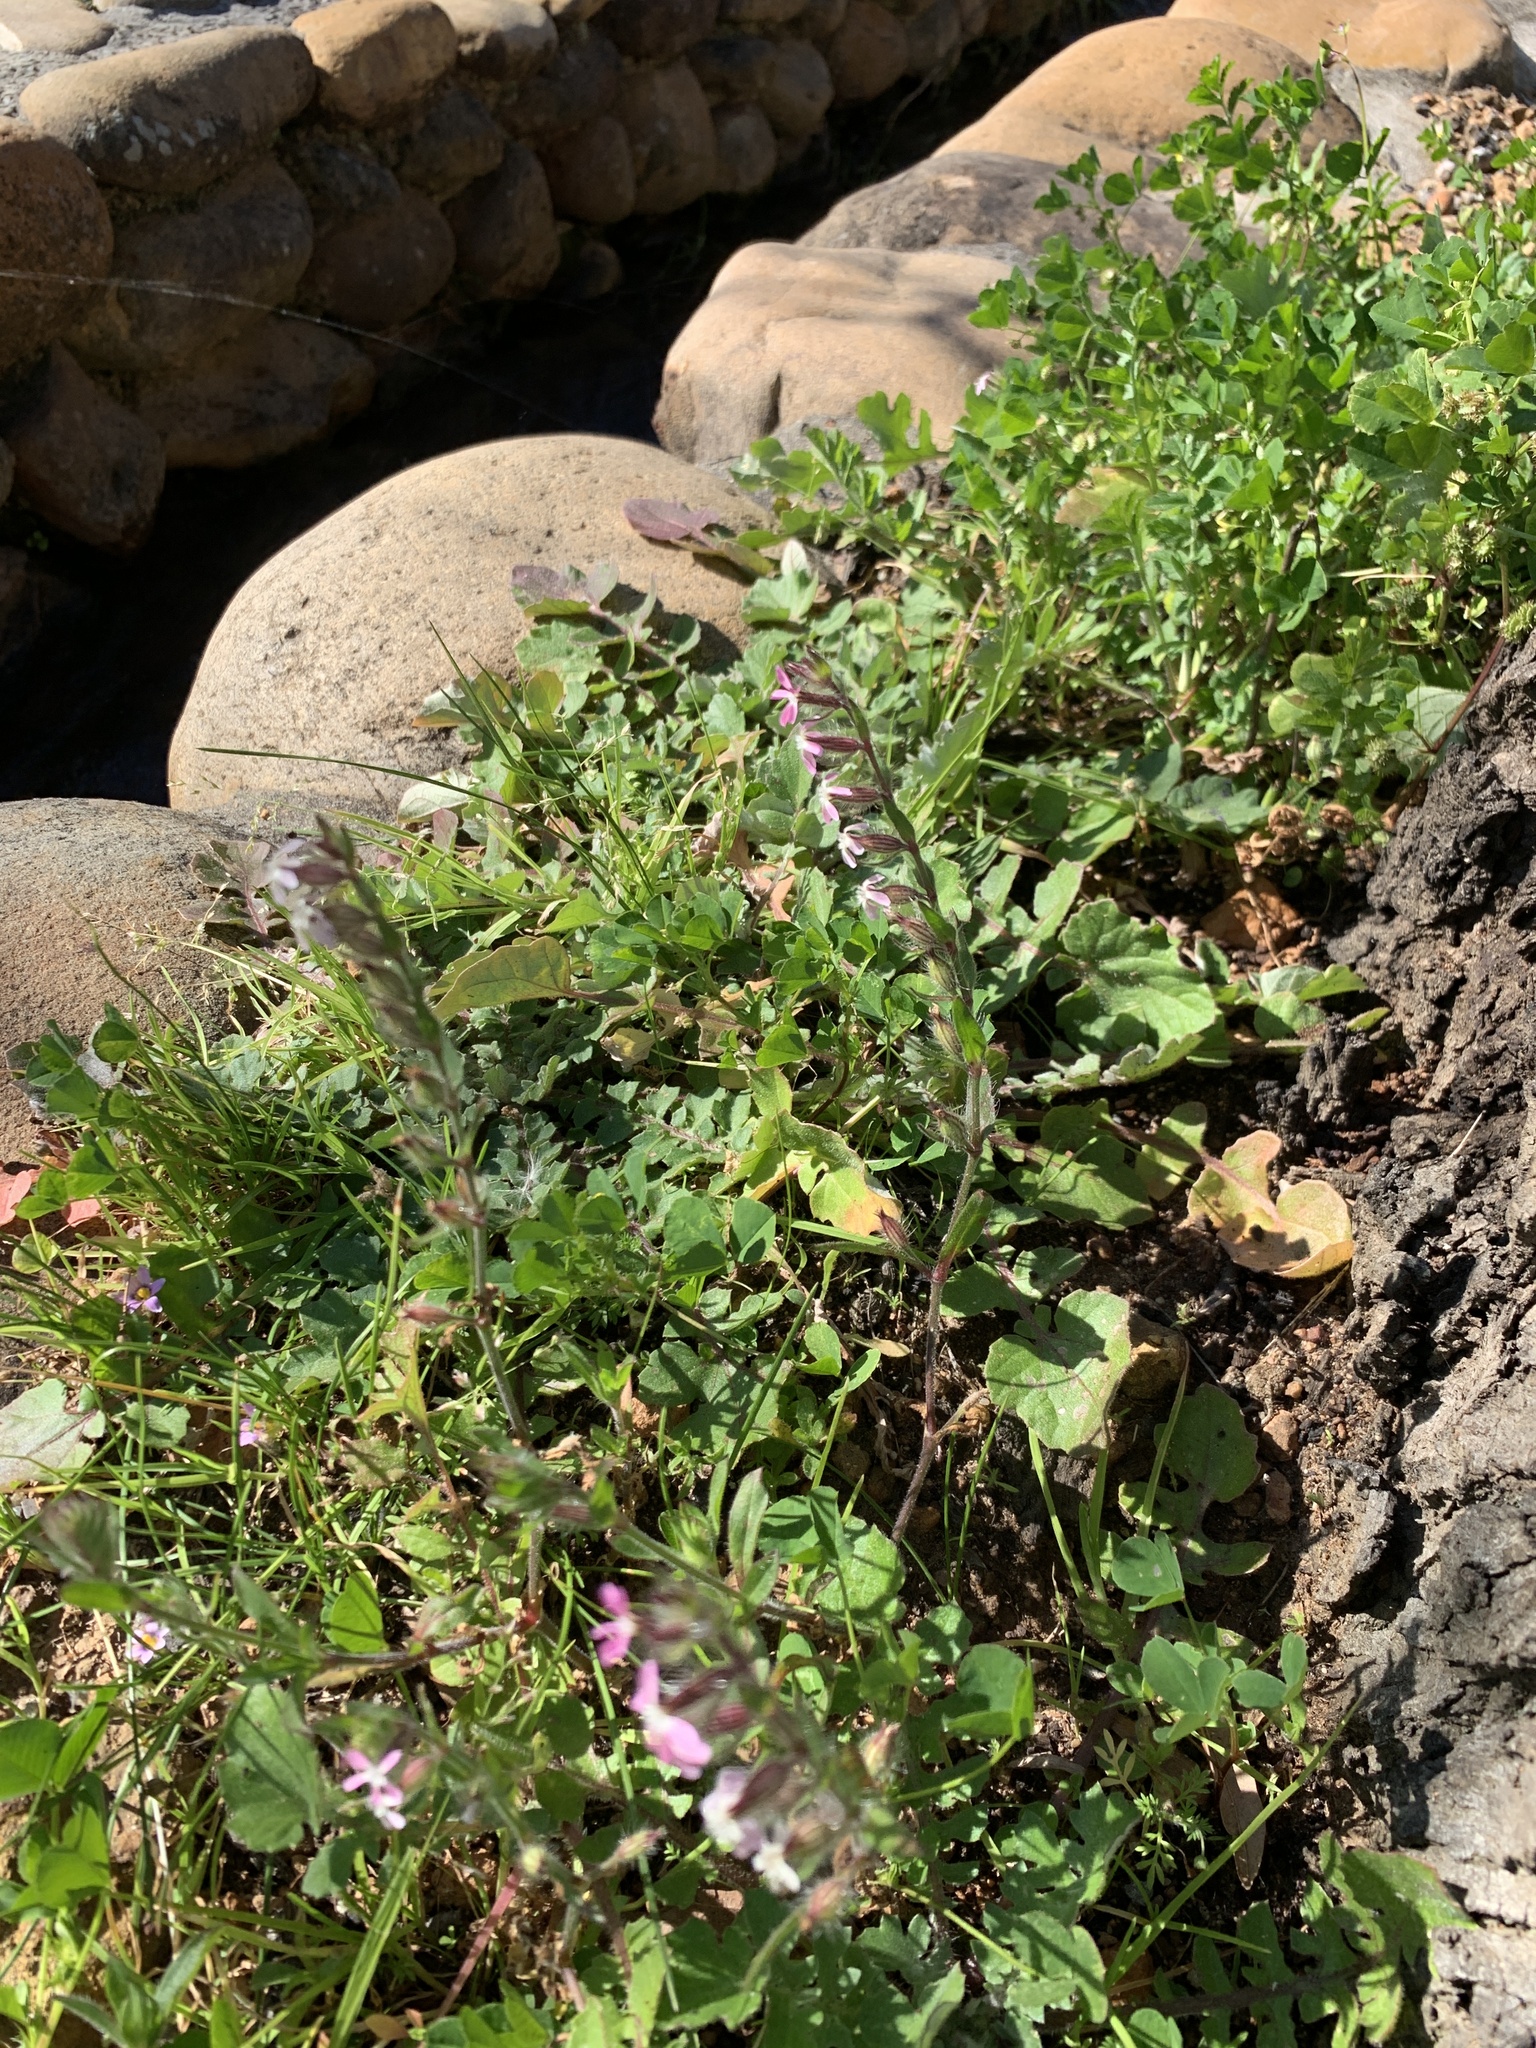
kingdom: Plantae
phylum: Tracheophyta
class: Magnoliopsida
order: Caryophyllales
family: Caryophyllaceae
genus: Silene
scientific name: Silene gallica
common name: Small-flowered catchfly
